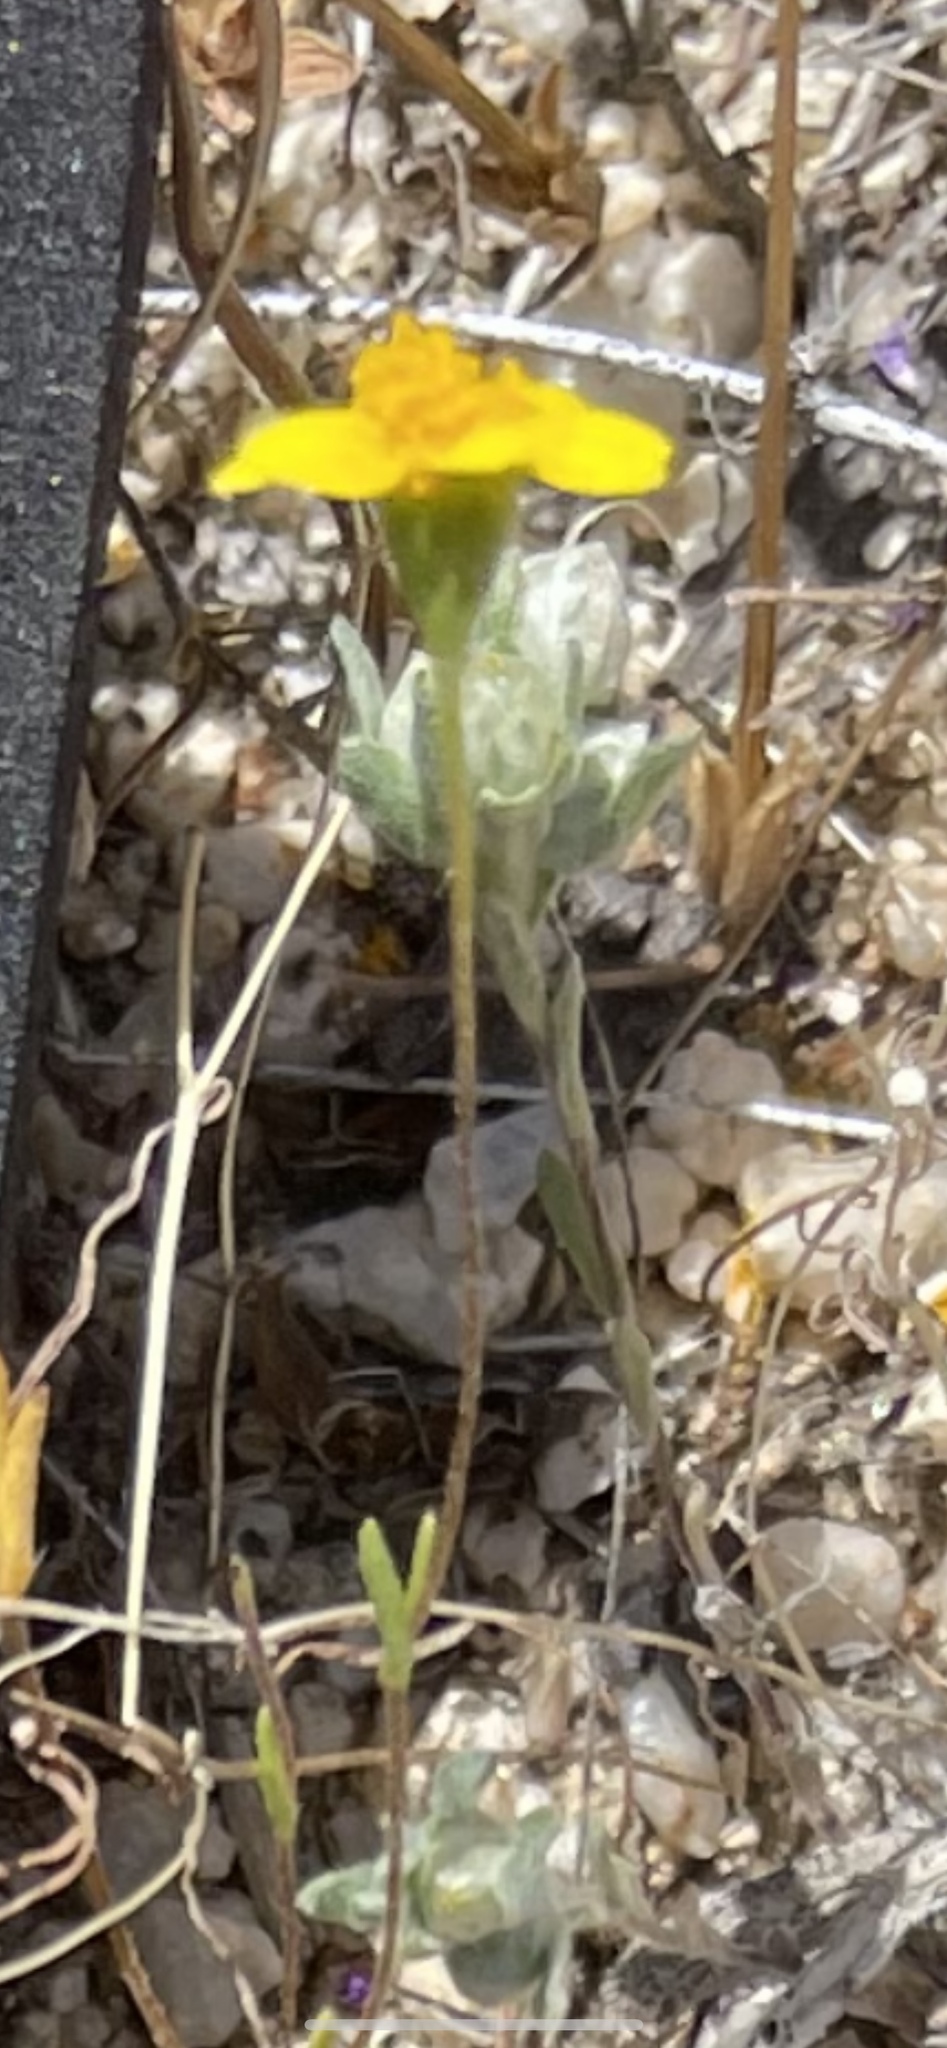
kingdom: Plantae
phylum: Tracheophyta
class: Magnoliopsida
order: Asterales
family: Asteraceae
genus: Stylocline
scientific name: Stylocline gnaphaloides
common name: Everlasting nest-straw
